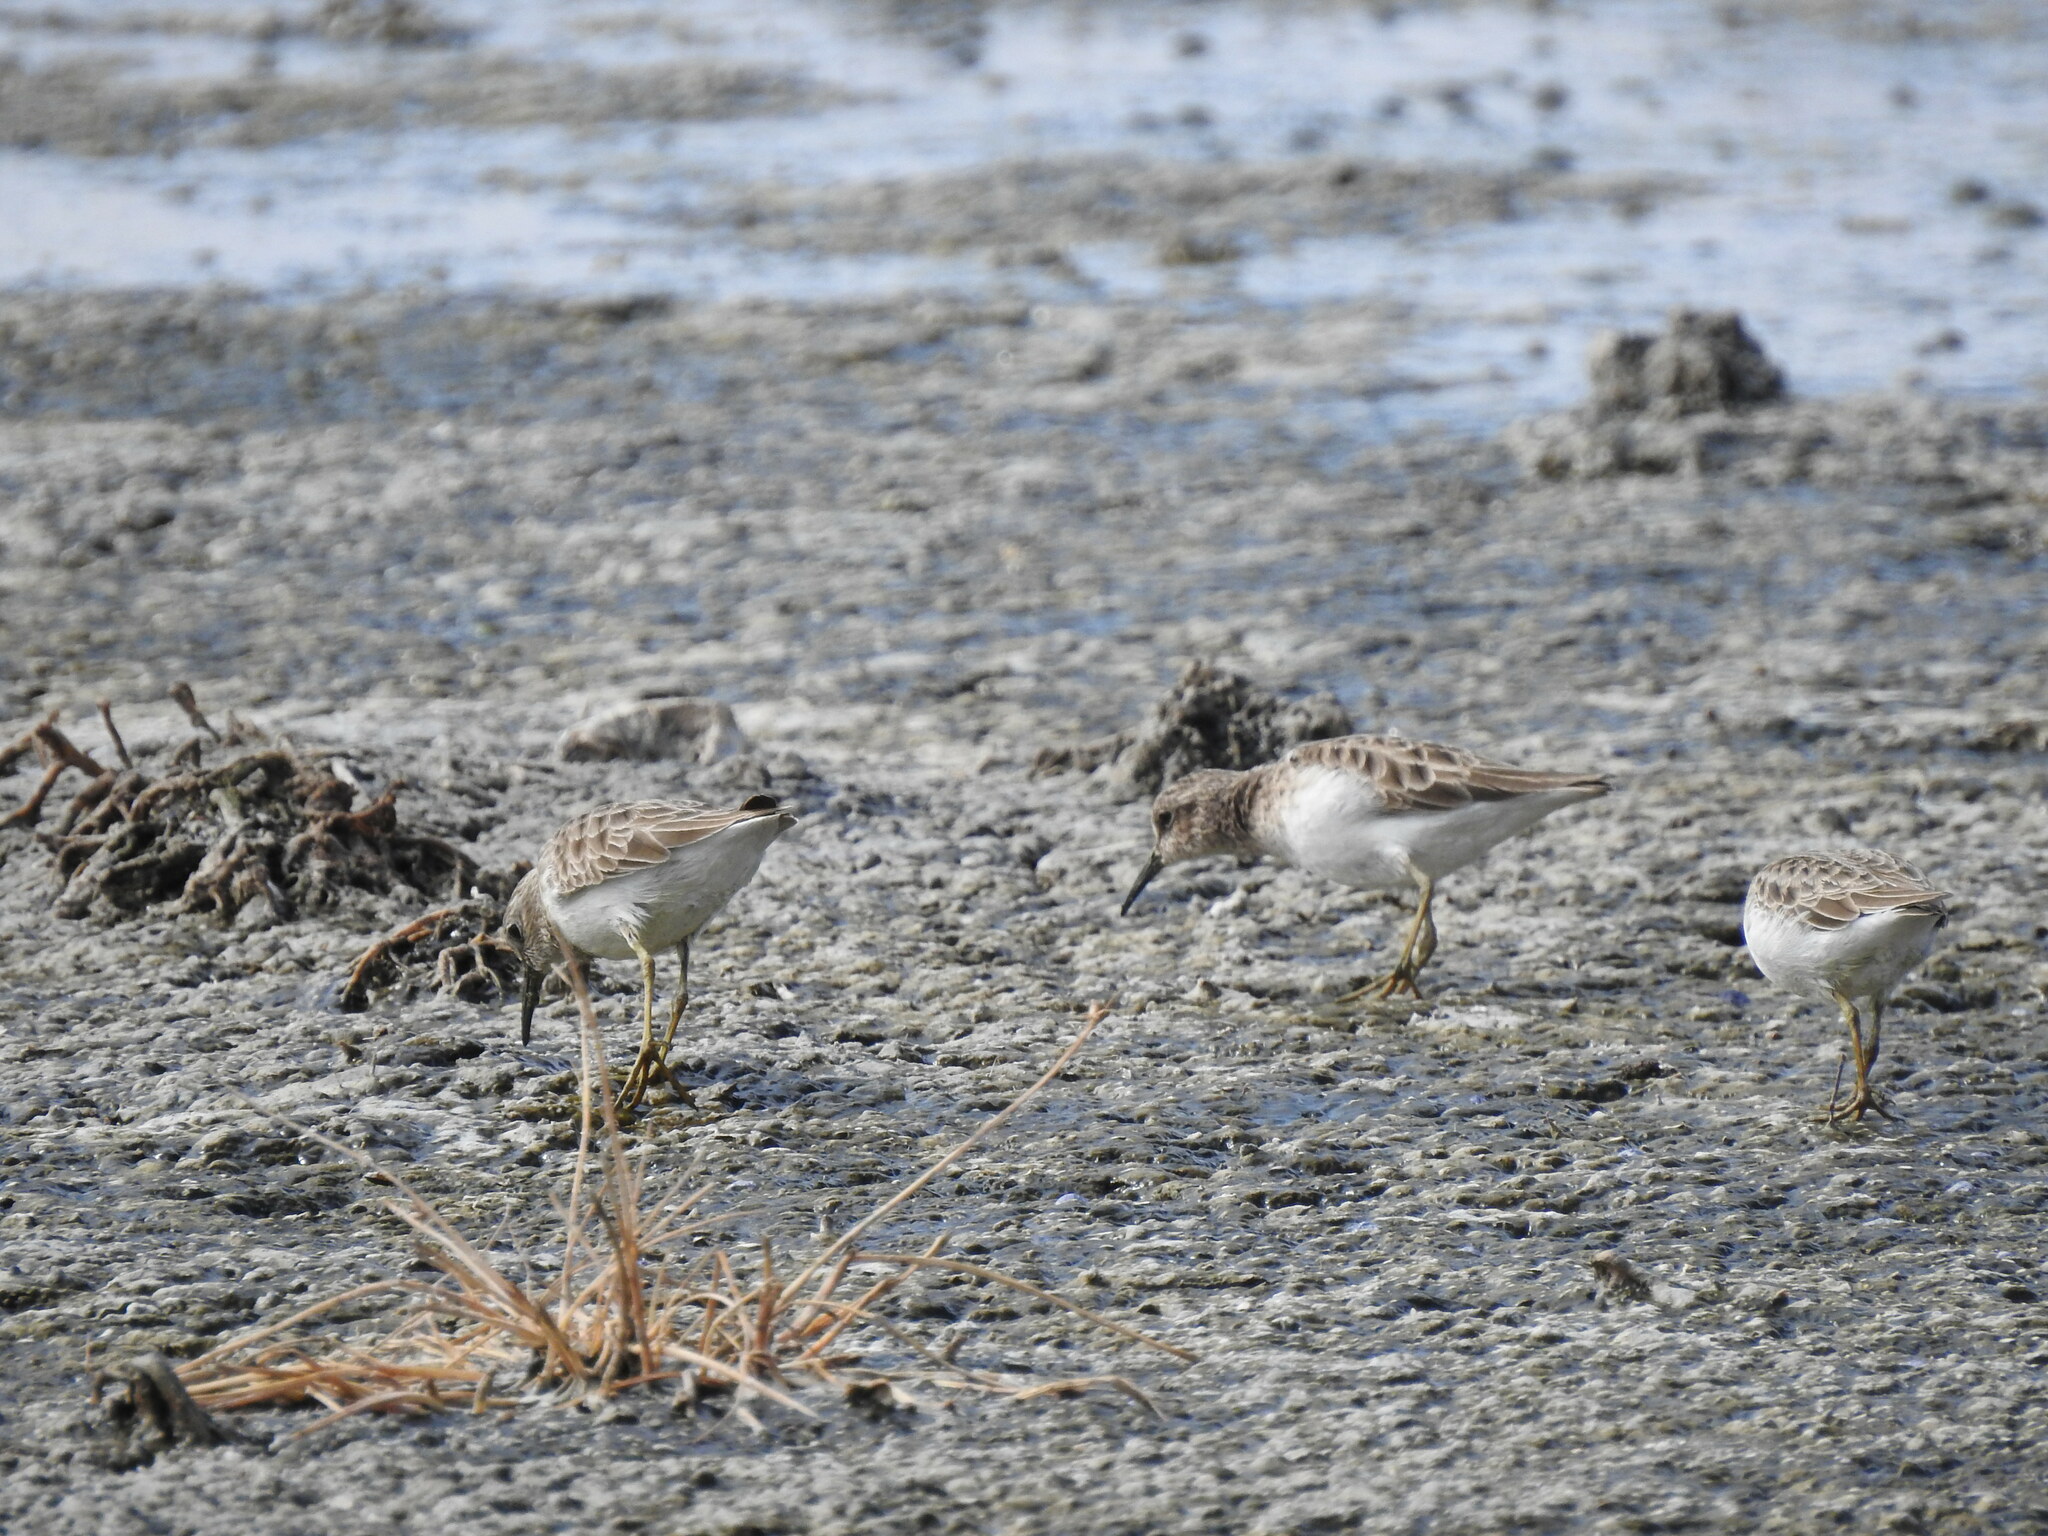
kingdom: Animalia
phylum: Chordata
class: Aves
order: Charadriiformes
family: Scolopacidae
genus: Calidris
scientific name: Calidris minutilla
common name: Least sandpiper
